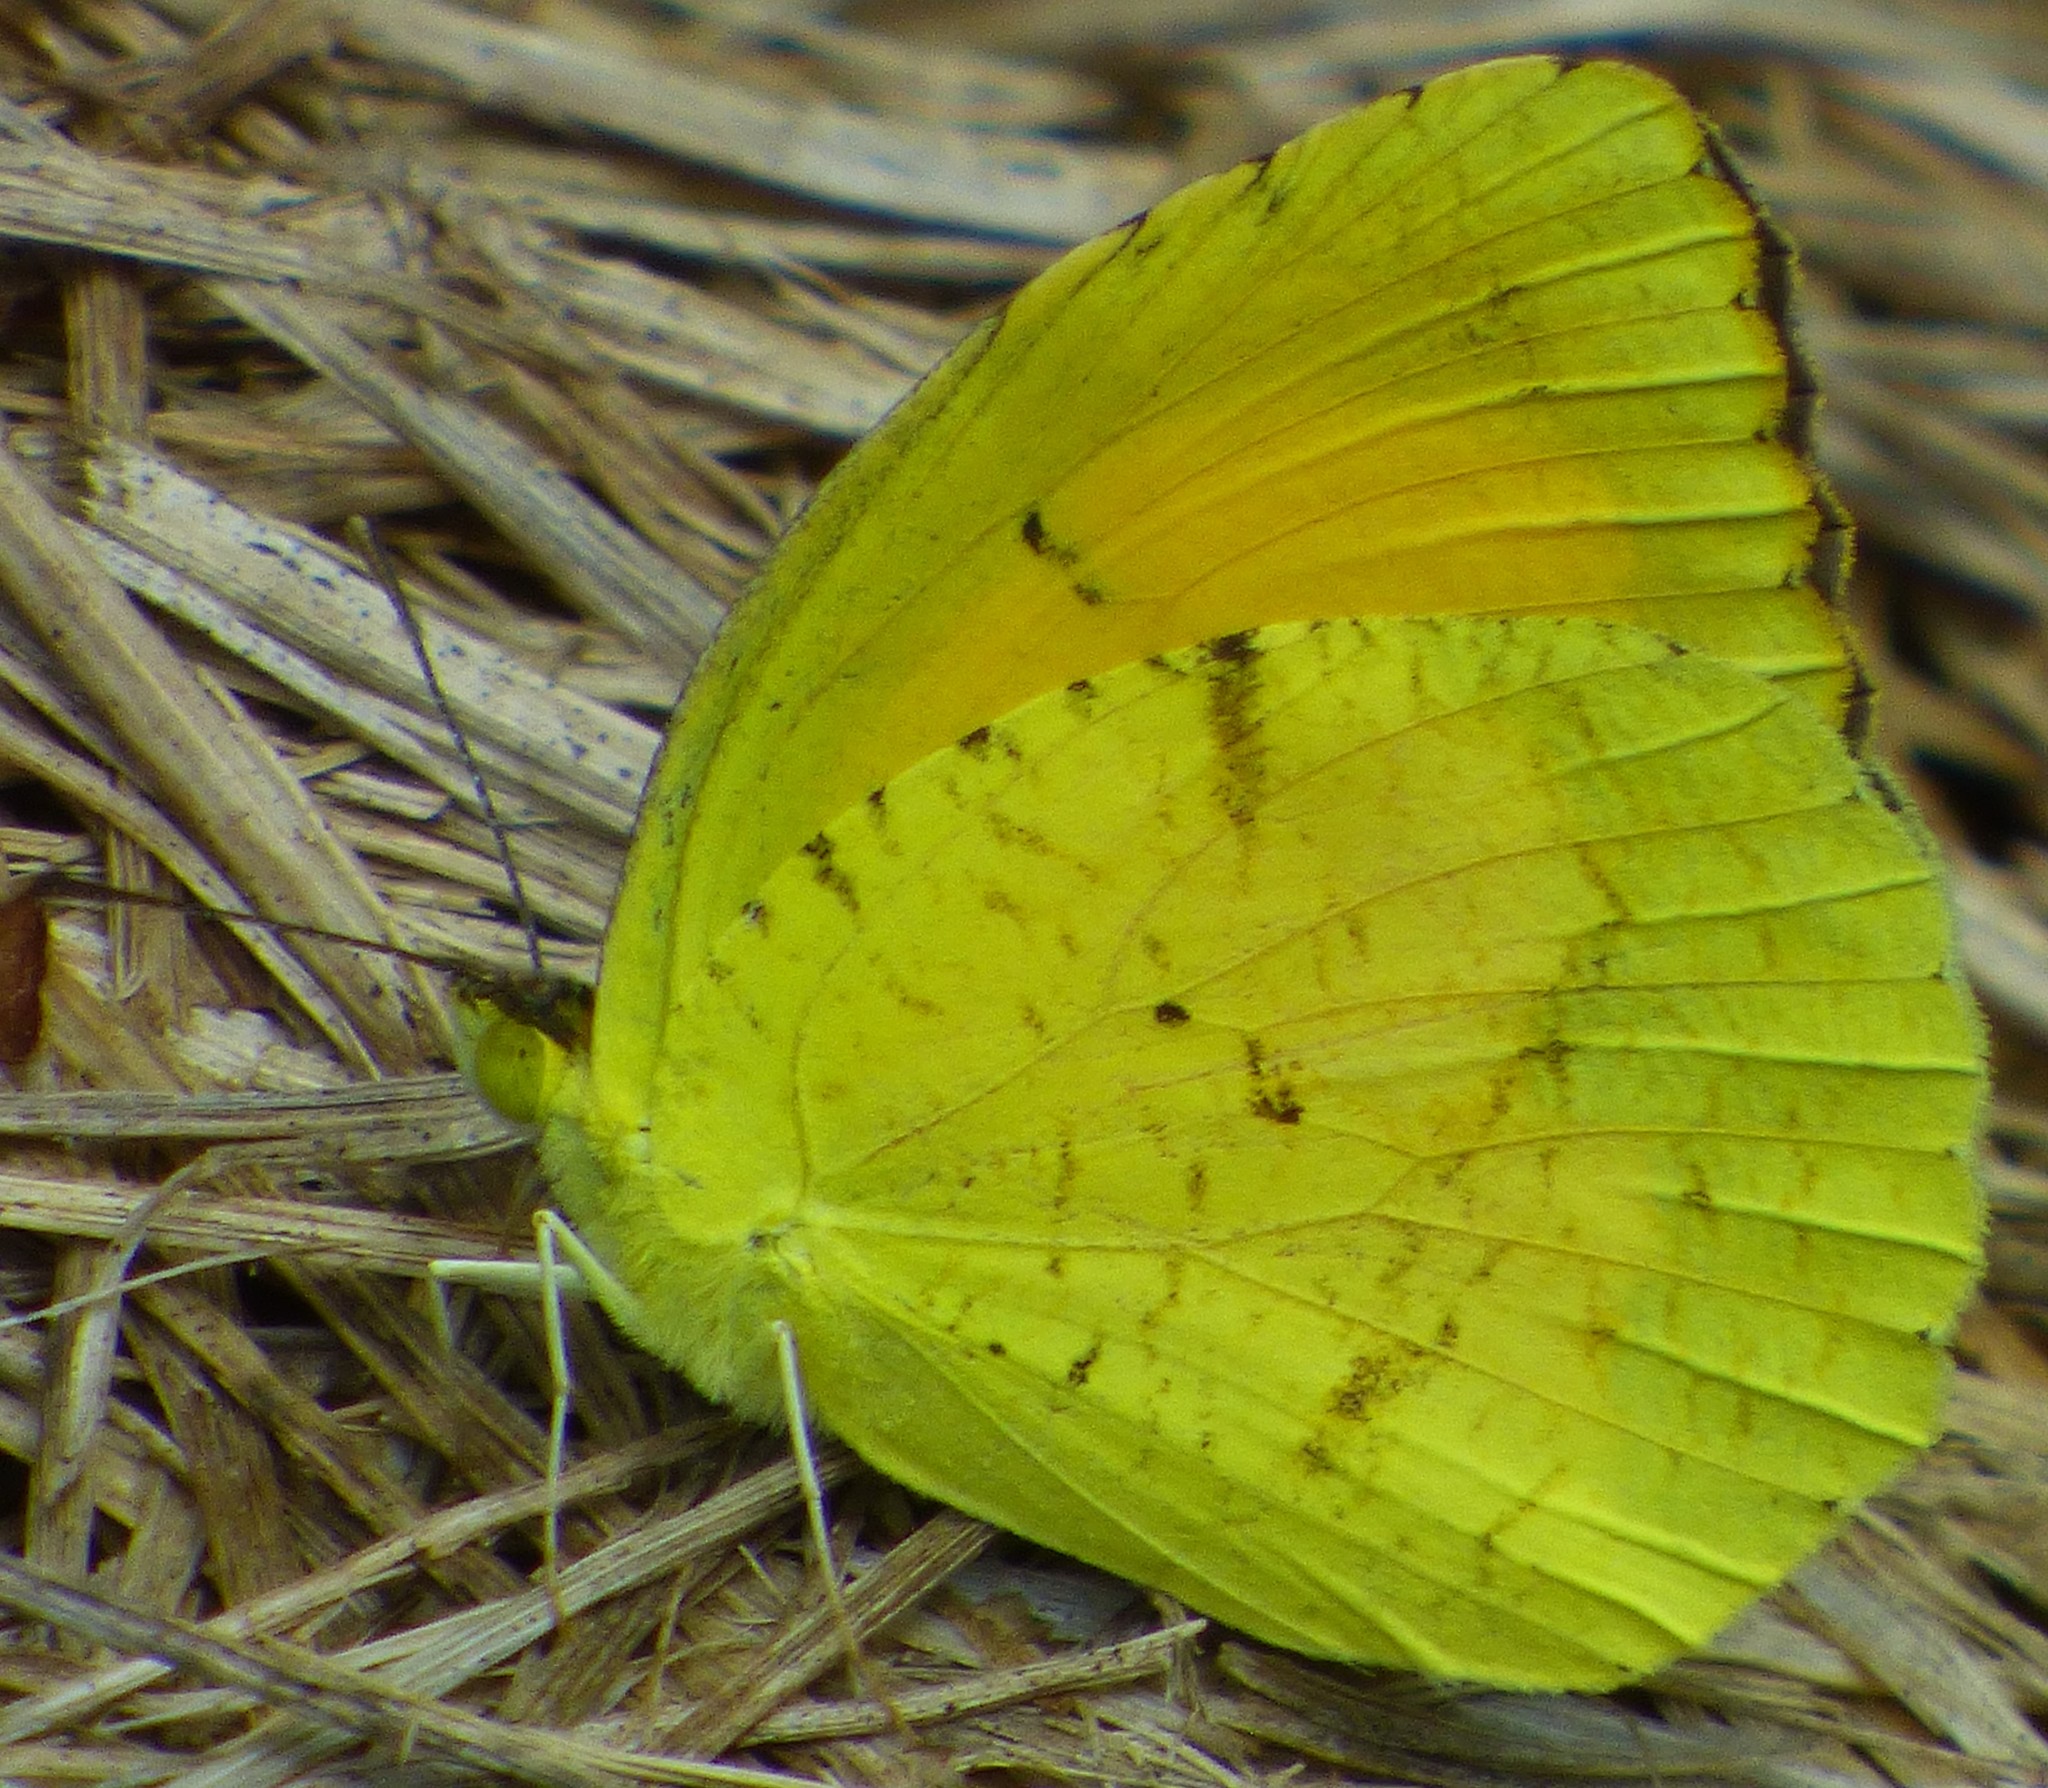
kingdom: Animalia
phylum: Arthropoda
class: Insecta
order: Lepidoptera
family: Pieridae
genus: Abaeis
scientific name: Abaeis nicippe
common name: Sleepy orange
